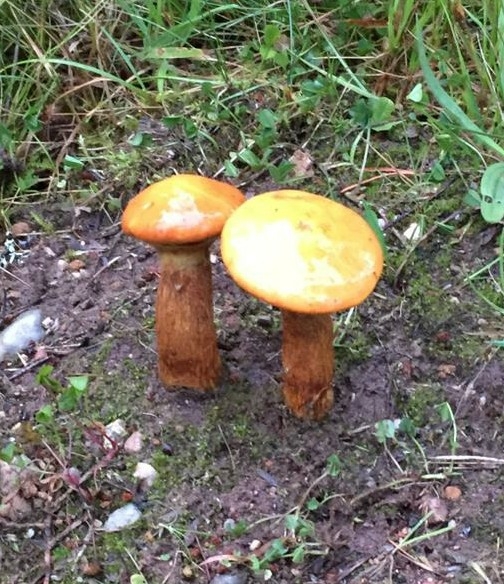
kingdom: Fungi
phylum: Basidiomycota
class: Agaricomycetes
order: Boletales
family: Suillaceae
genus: Suillus
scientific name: Suillus grevillei
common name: Larch bolete
